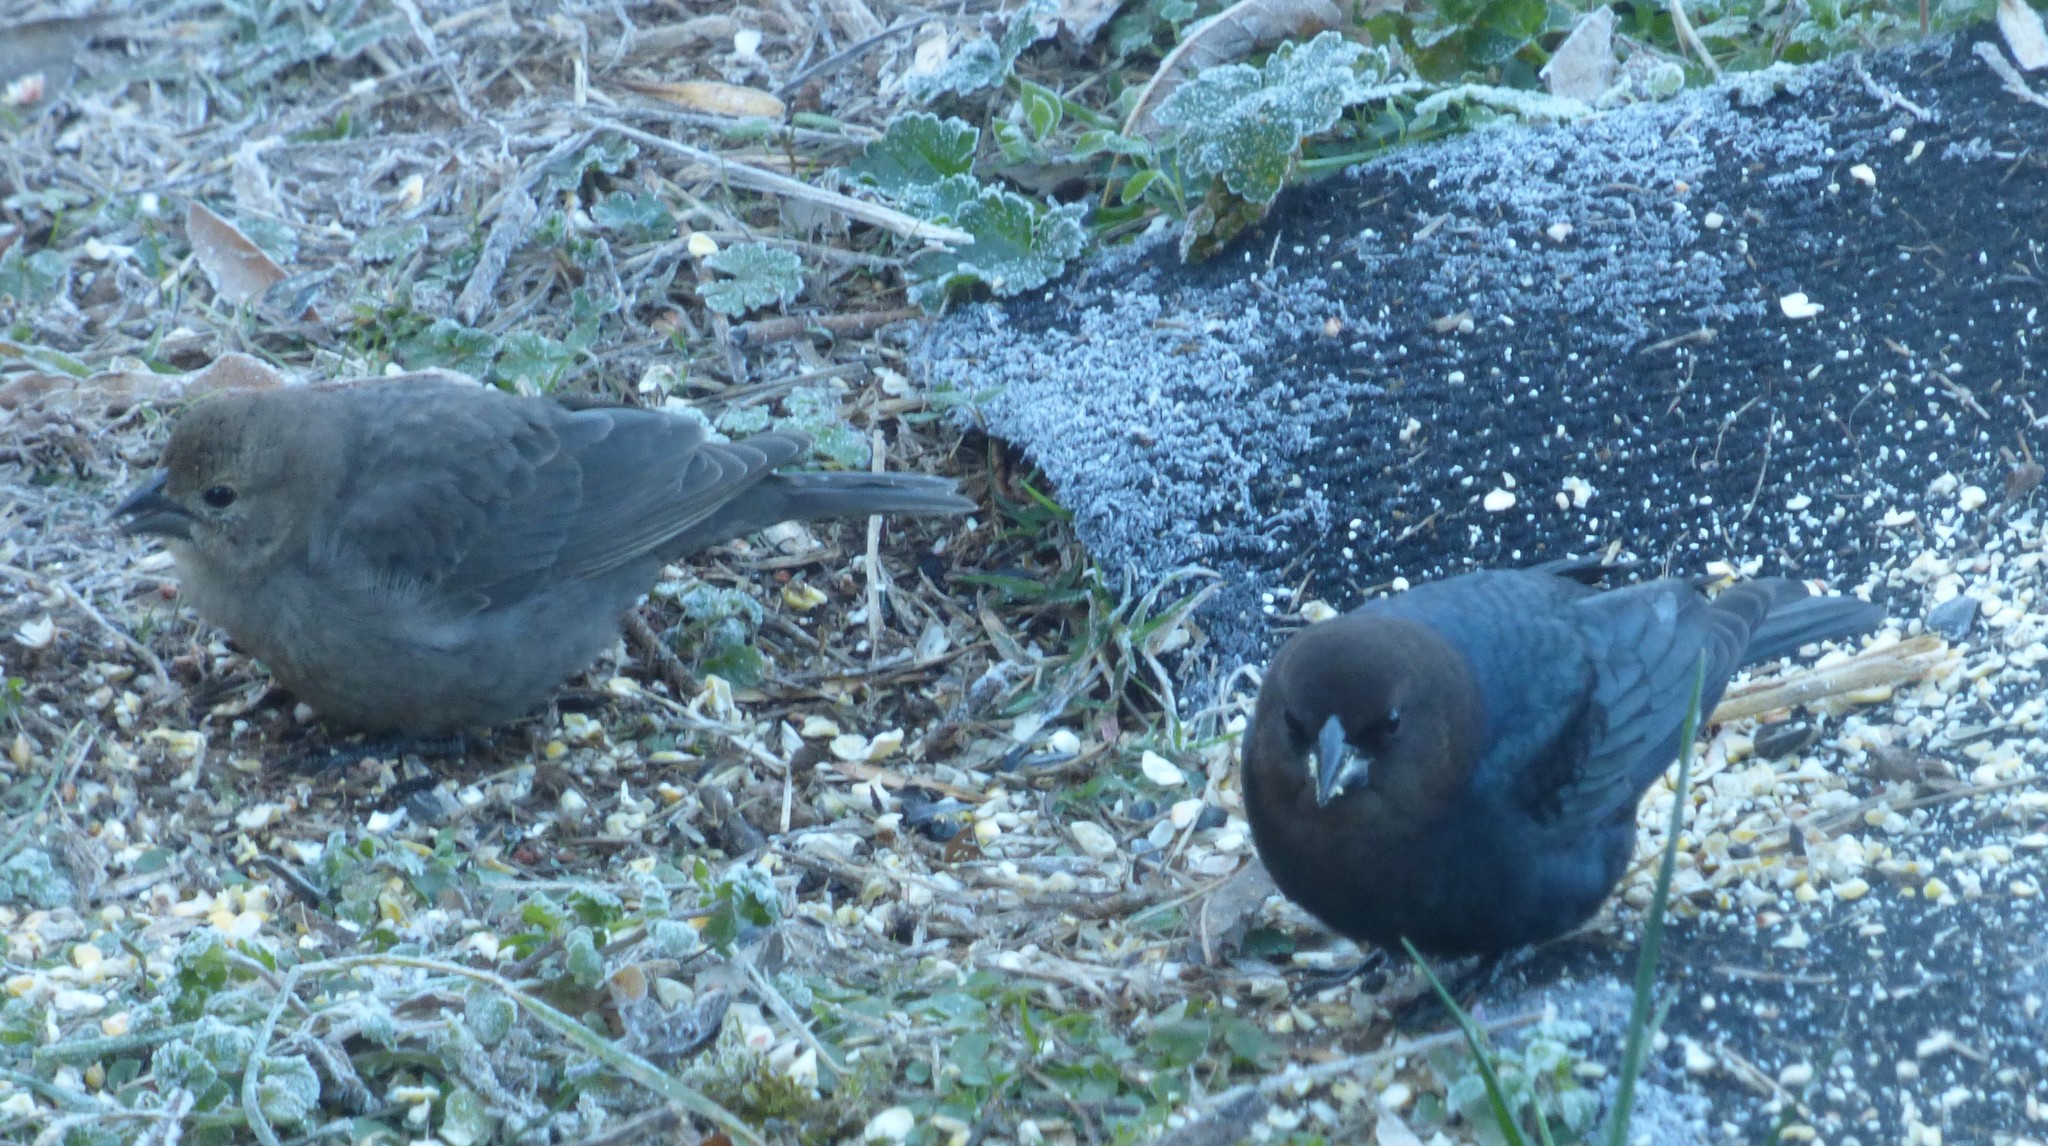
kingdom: Animalia
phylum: Chordata
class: Aves
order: Passeriformes
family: Icteridae
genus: Molothrus
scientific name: Molothrus ater
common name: Brown-headed cowbird
